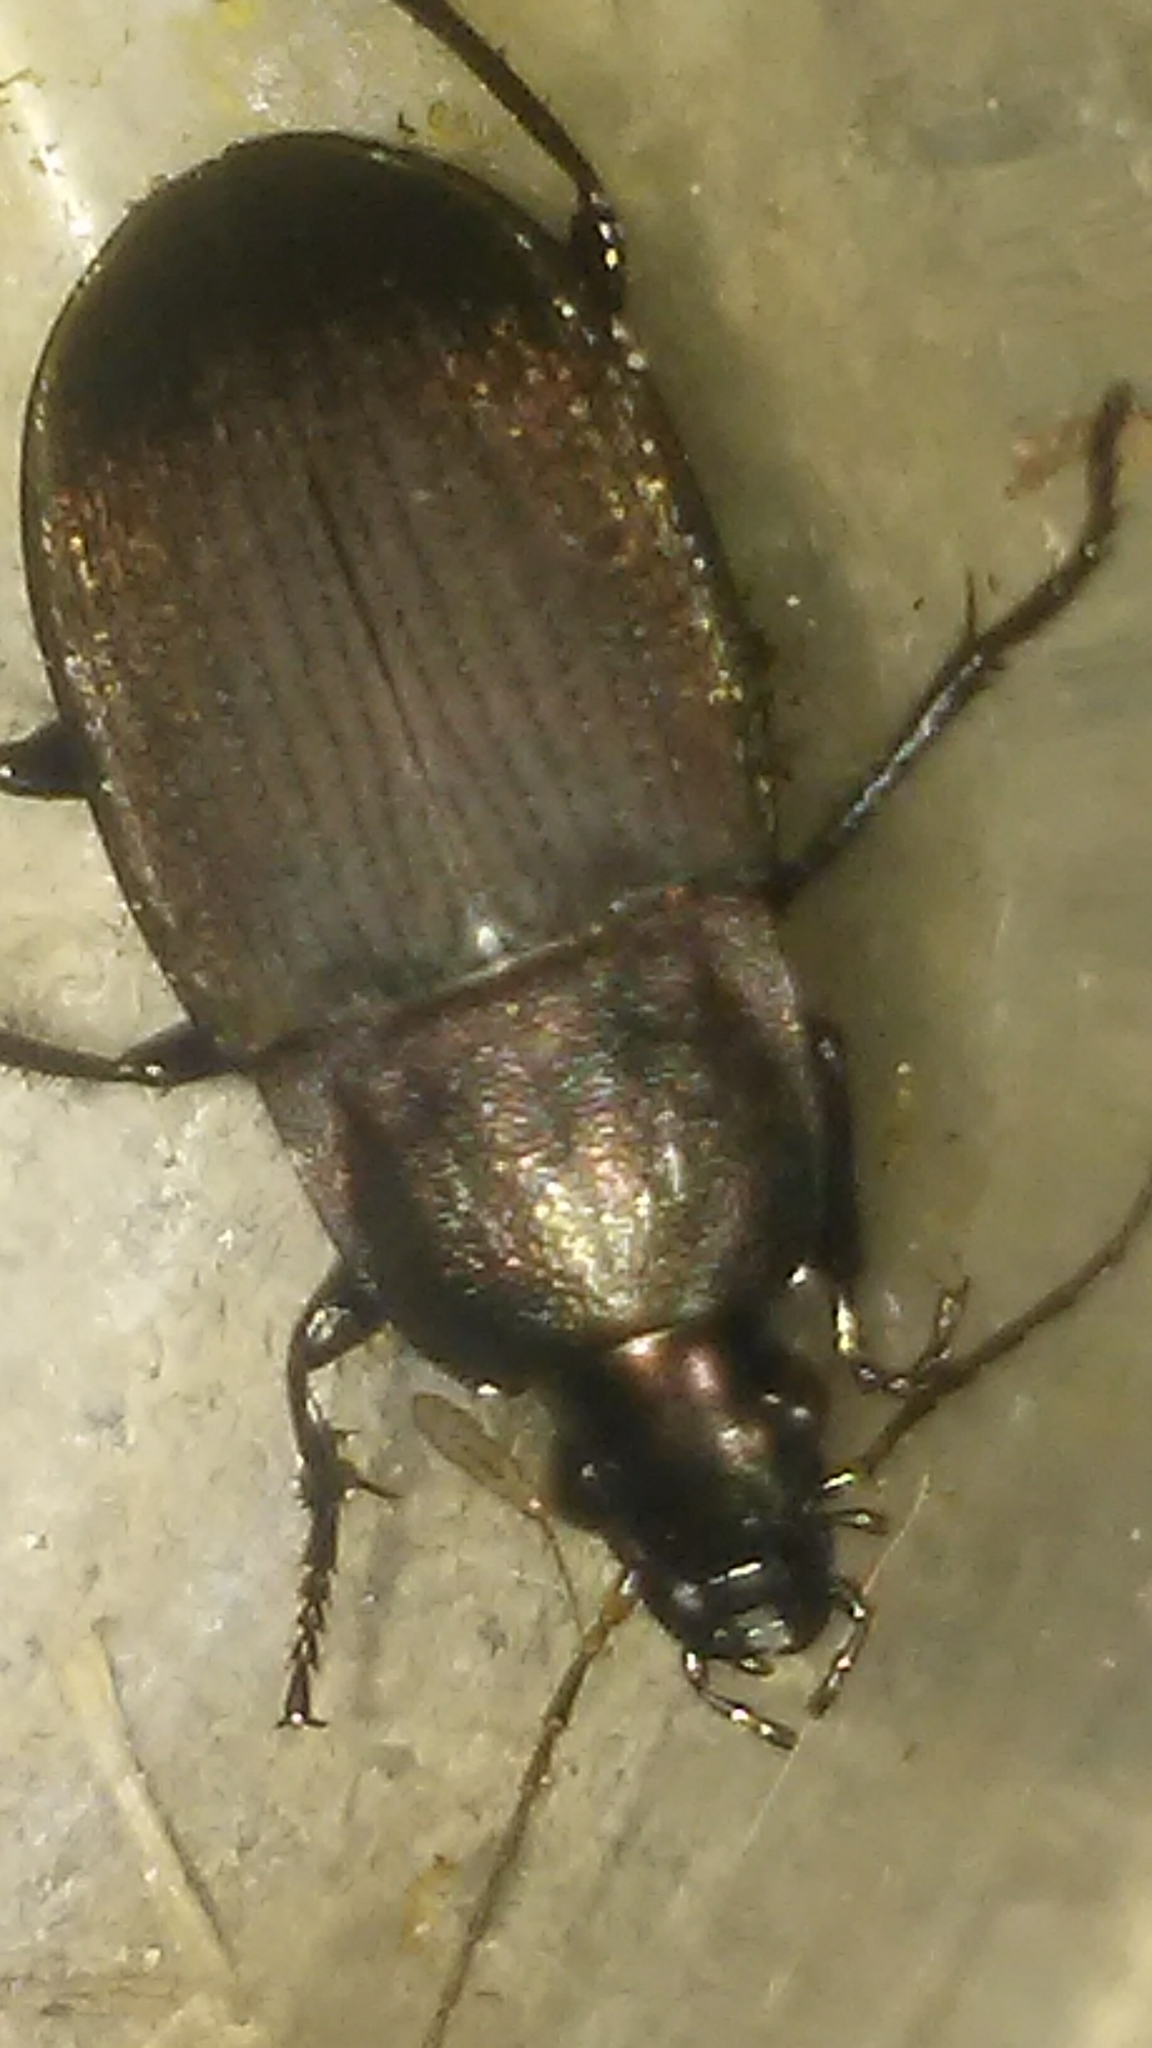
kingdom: Animalia
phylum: Arthropoda
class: Insecta
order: Coleoptera
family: Carabidae
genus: Chlaenius
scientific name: Chlaenius tomentosus
